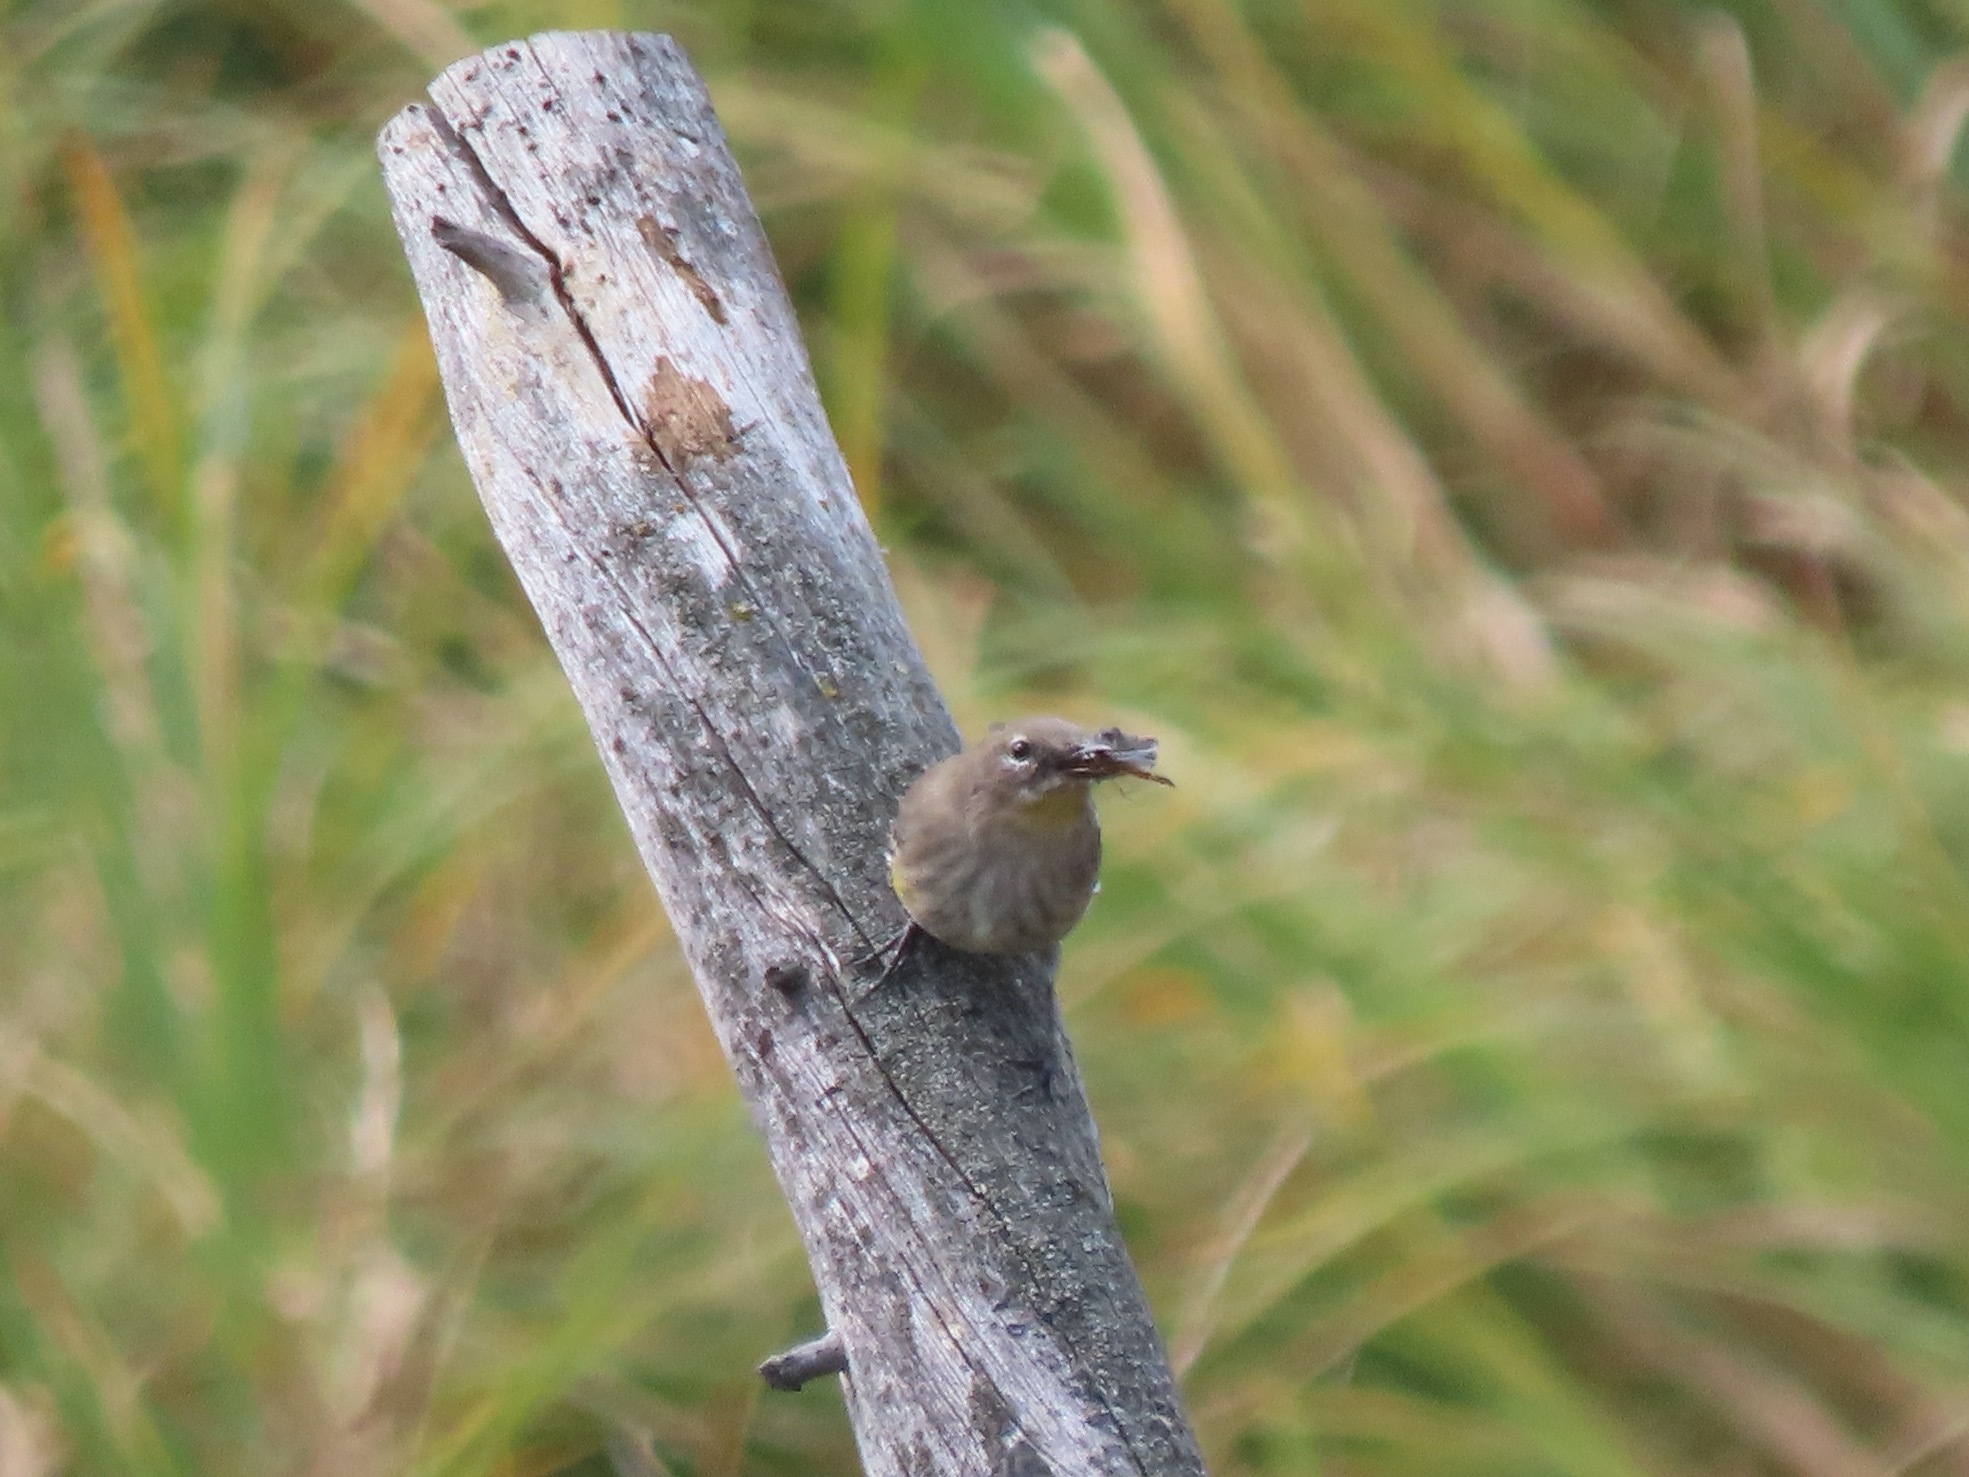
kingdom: Animalia
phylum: Chordata
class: Aves
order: Passeriformes
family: Parulidae
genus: Setophaga
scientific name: Setophaga coronata
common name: Myrtle warbler
